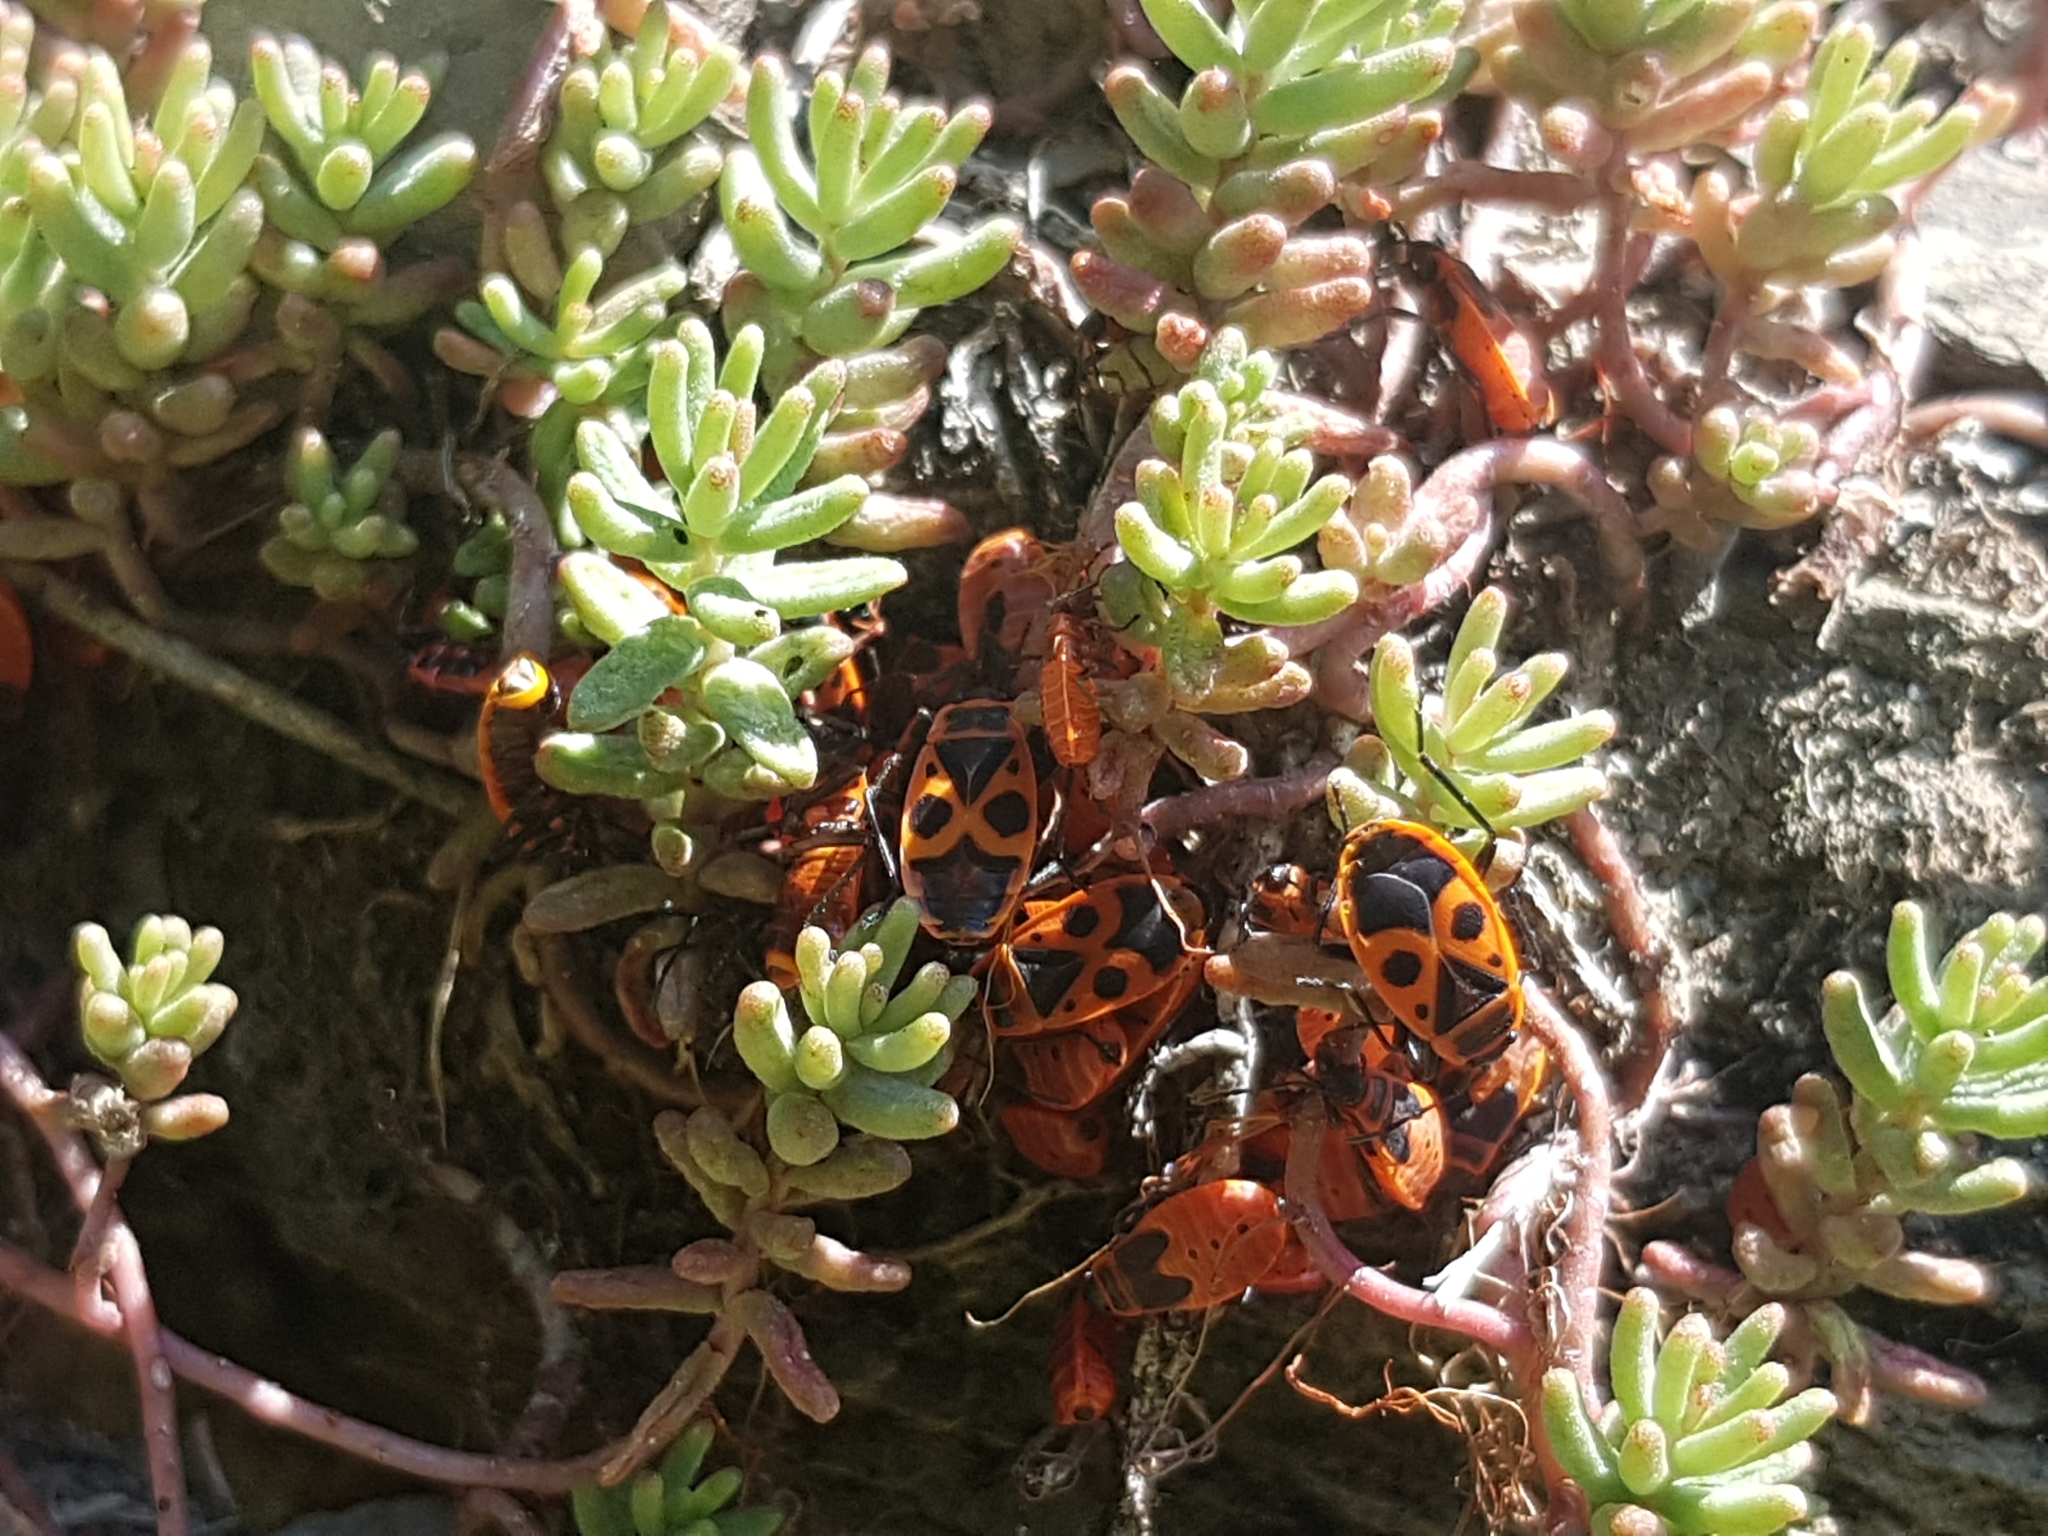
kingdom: Animalia
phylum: Arthropoda
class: Insecta
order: Hemiptera
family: Pyrrhocoridae
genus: Pyrrhocoris
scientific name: Pyrrhocoris apterus
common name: Firebug
